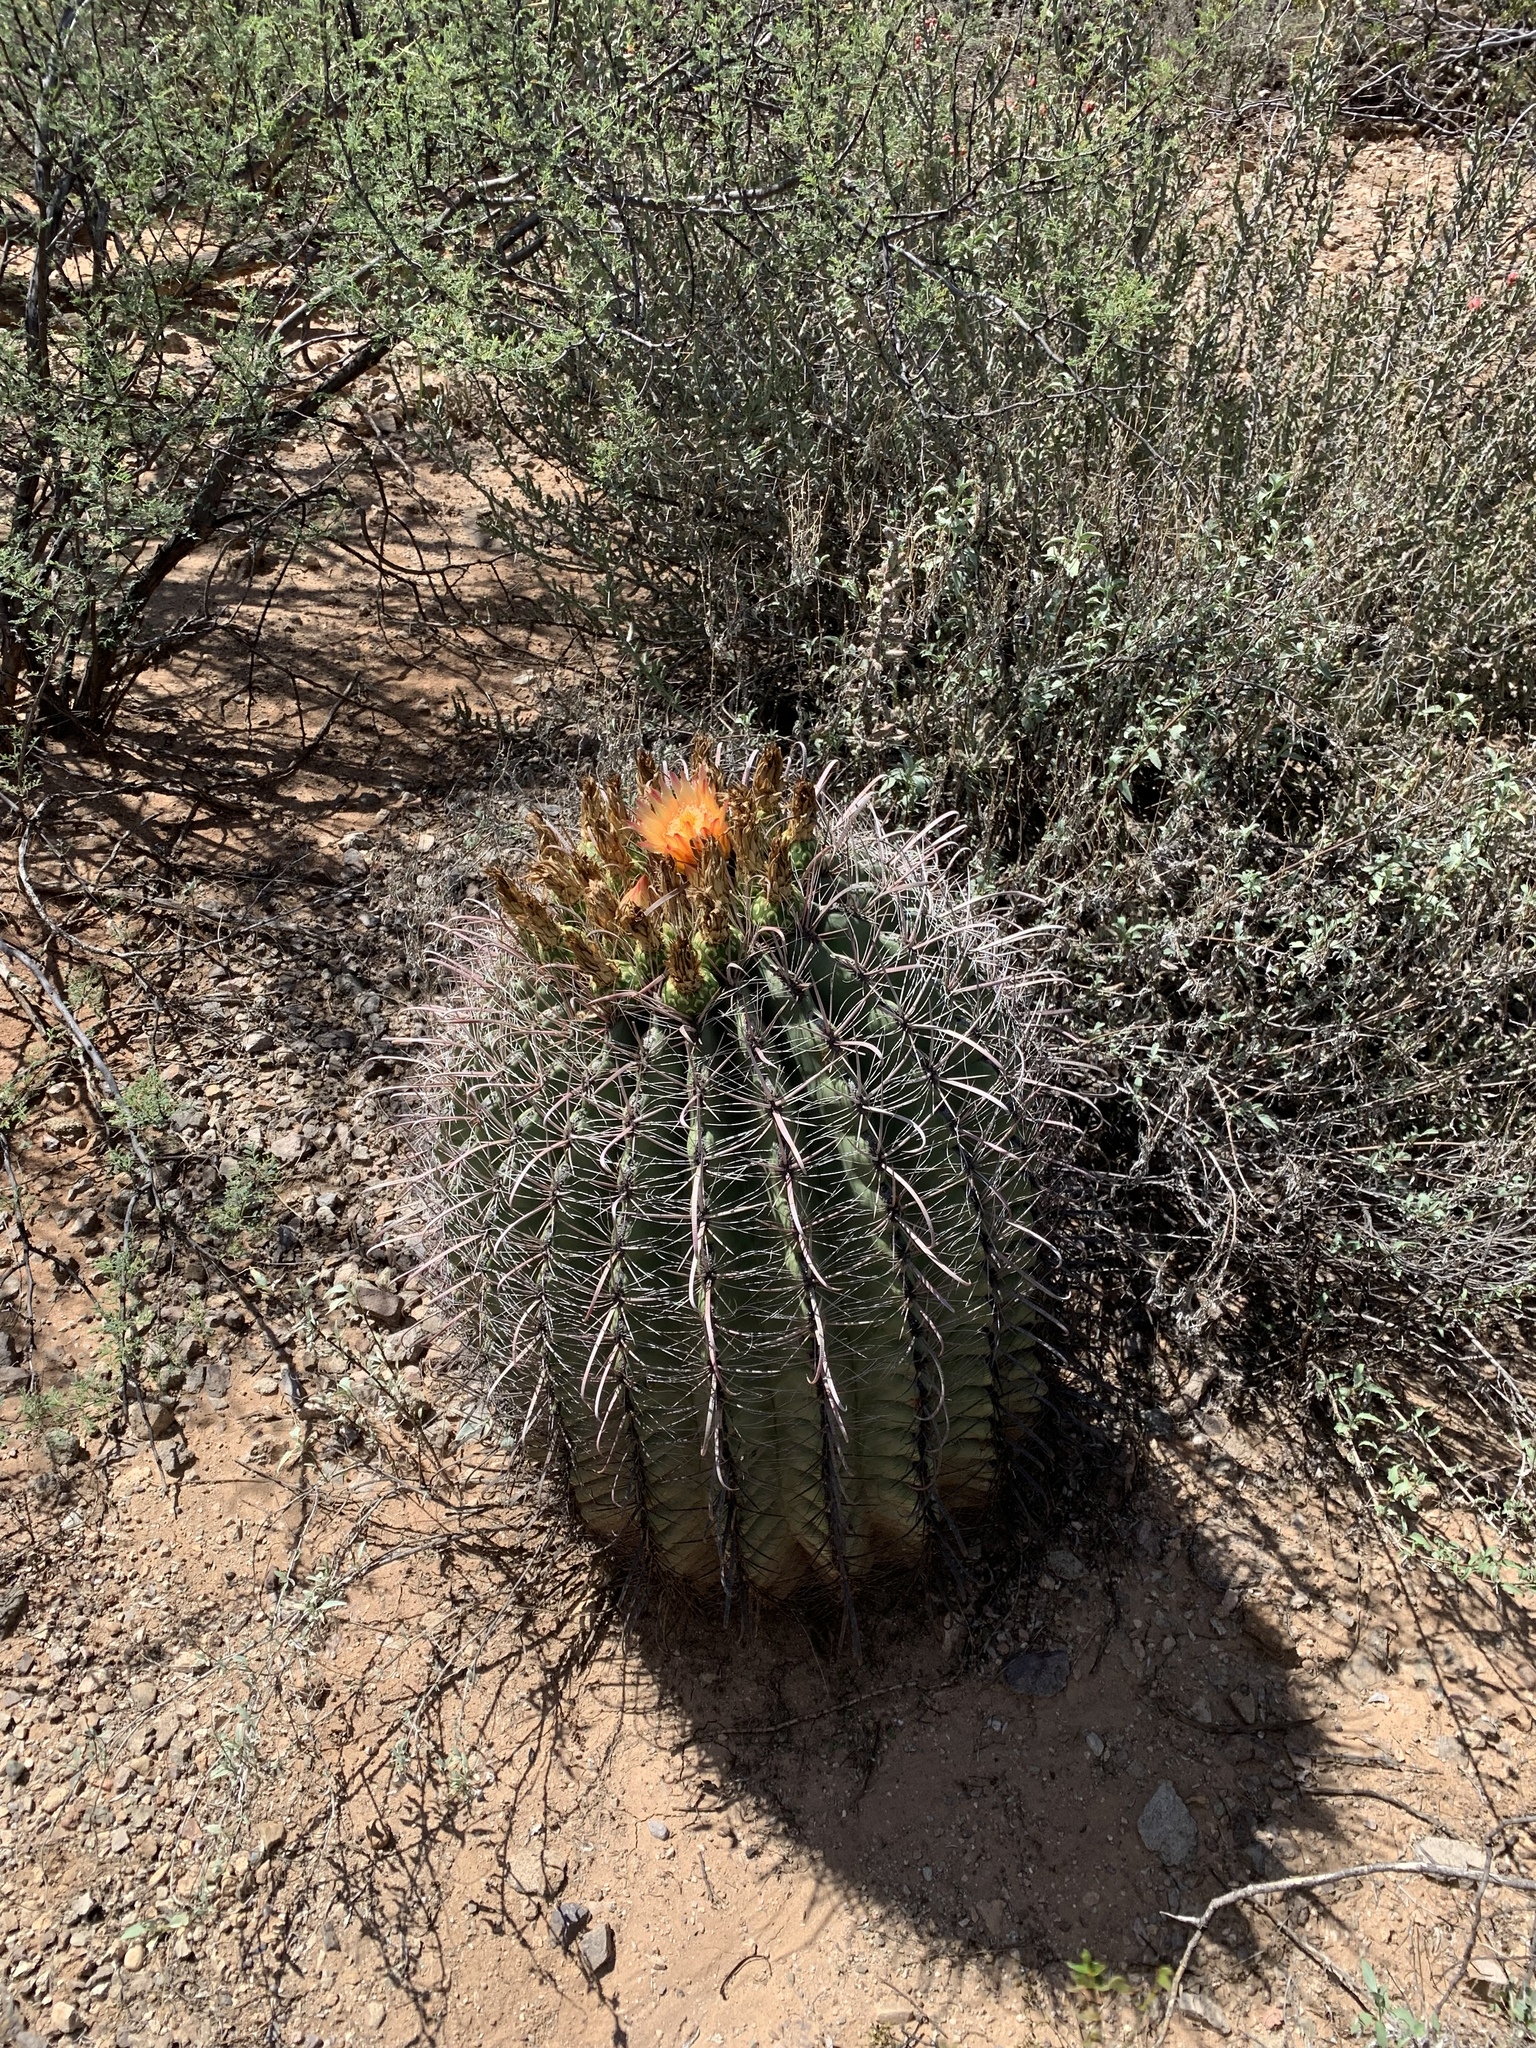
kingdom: Plantae
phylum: Tracheophyta
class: Magnoliopsida
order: Caryophyllales
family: Cactaceae
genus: Ferocactus
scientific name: Ferocactus wislizeni
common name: Candy barrel cactus
